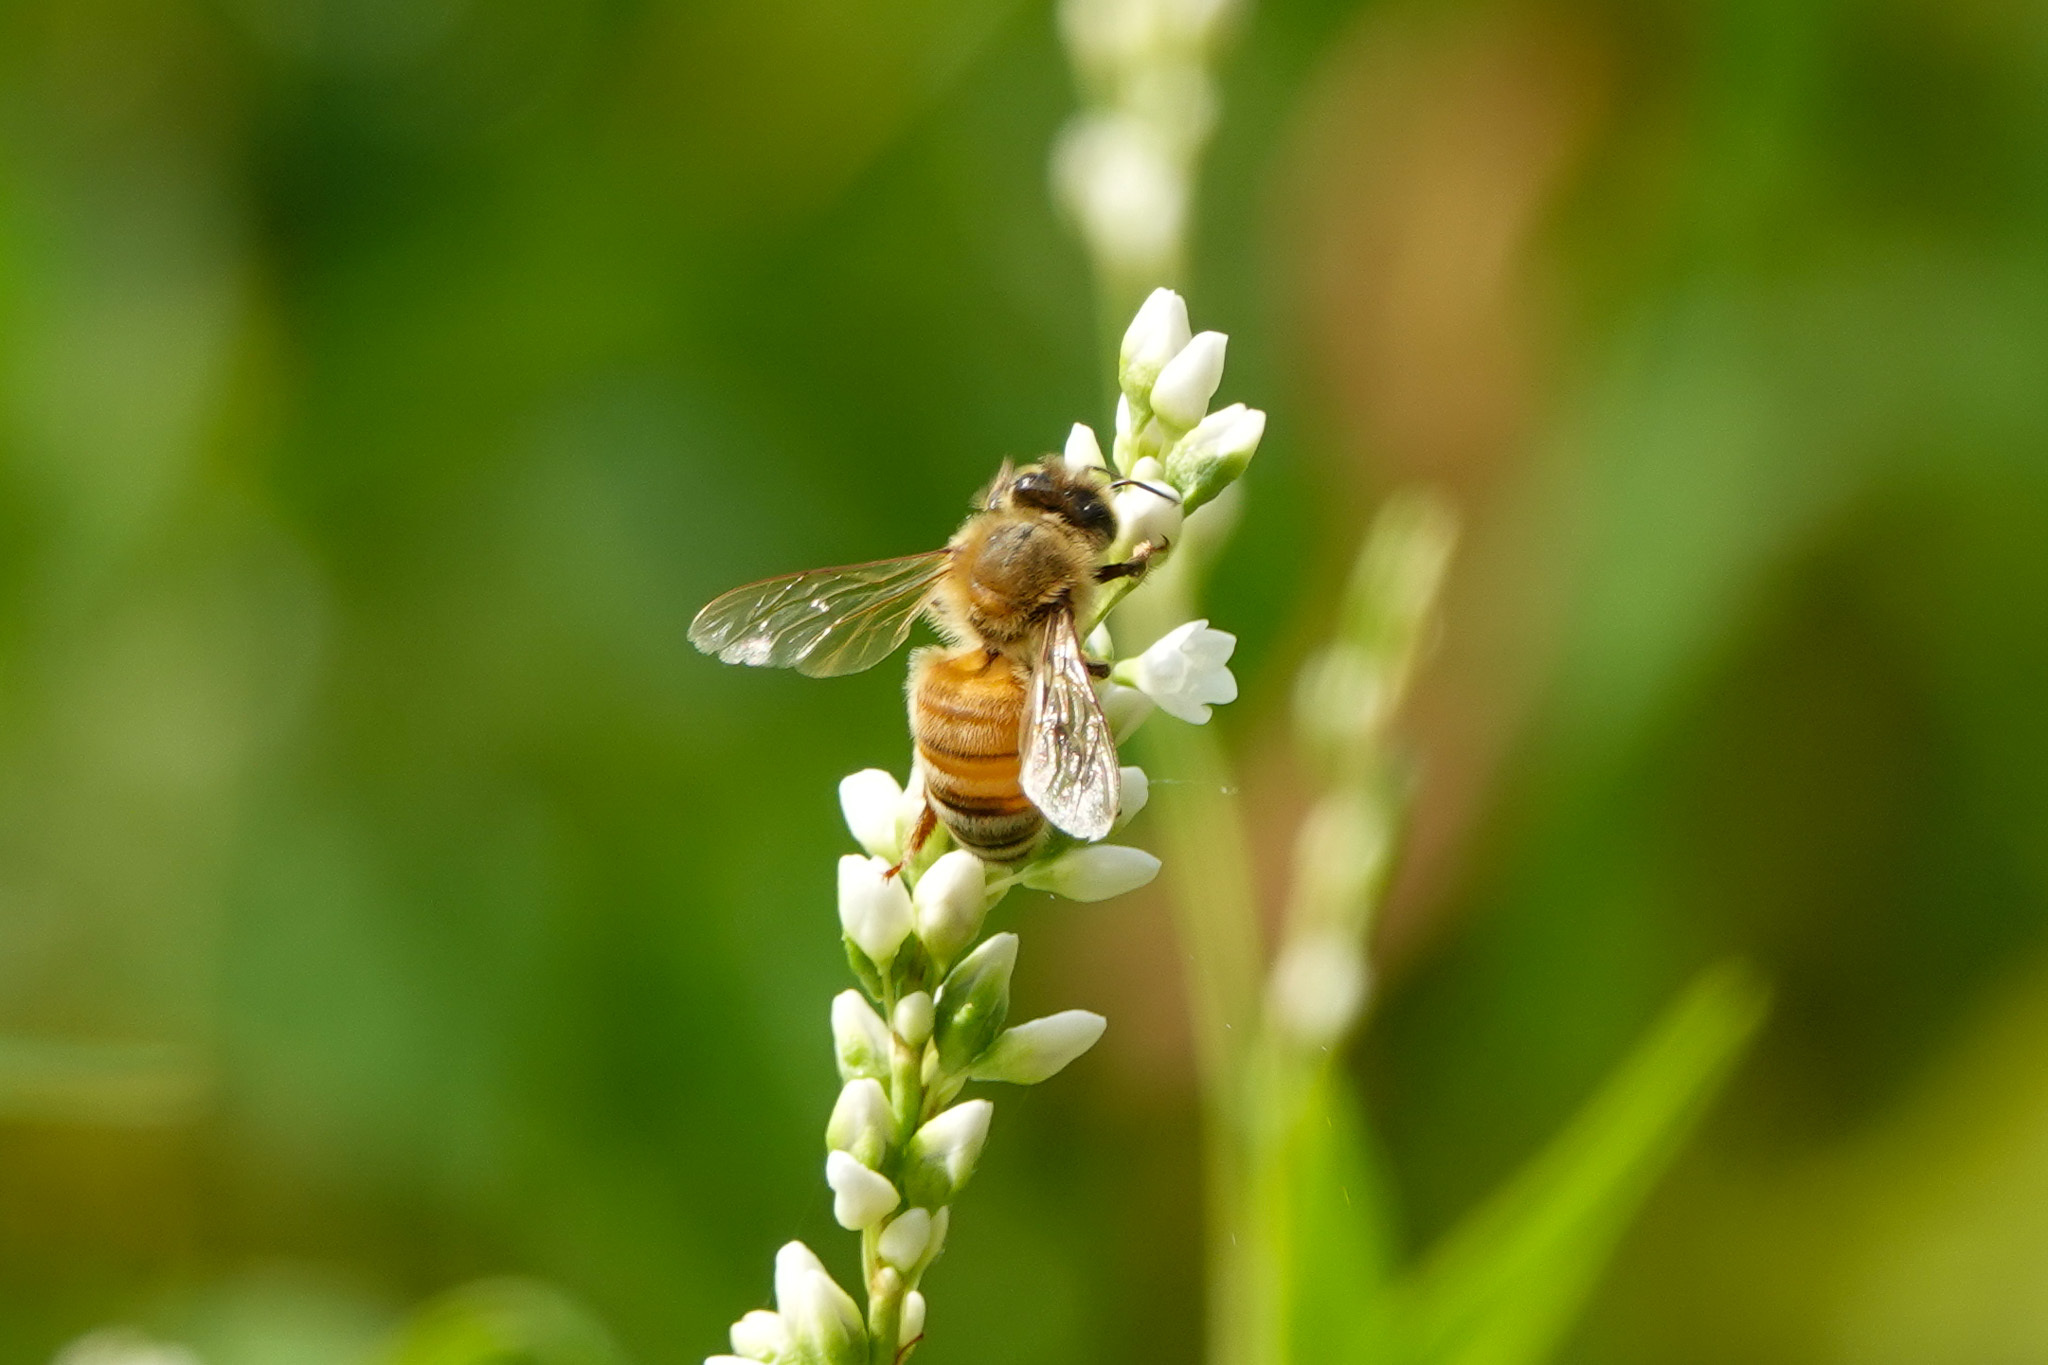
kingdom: Animalia
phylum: Arthropoda
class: Insecta
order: Hymenoptera
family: Apidae
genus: Apis
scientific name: Apis mellifera
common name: Honey bee
